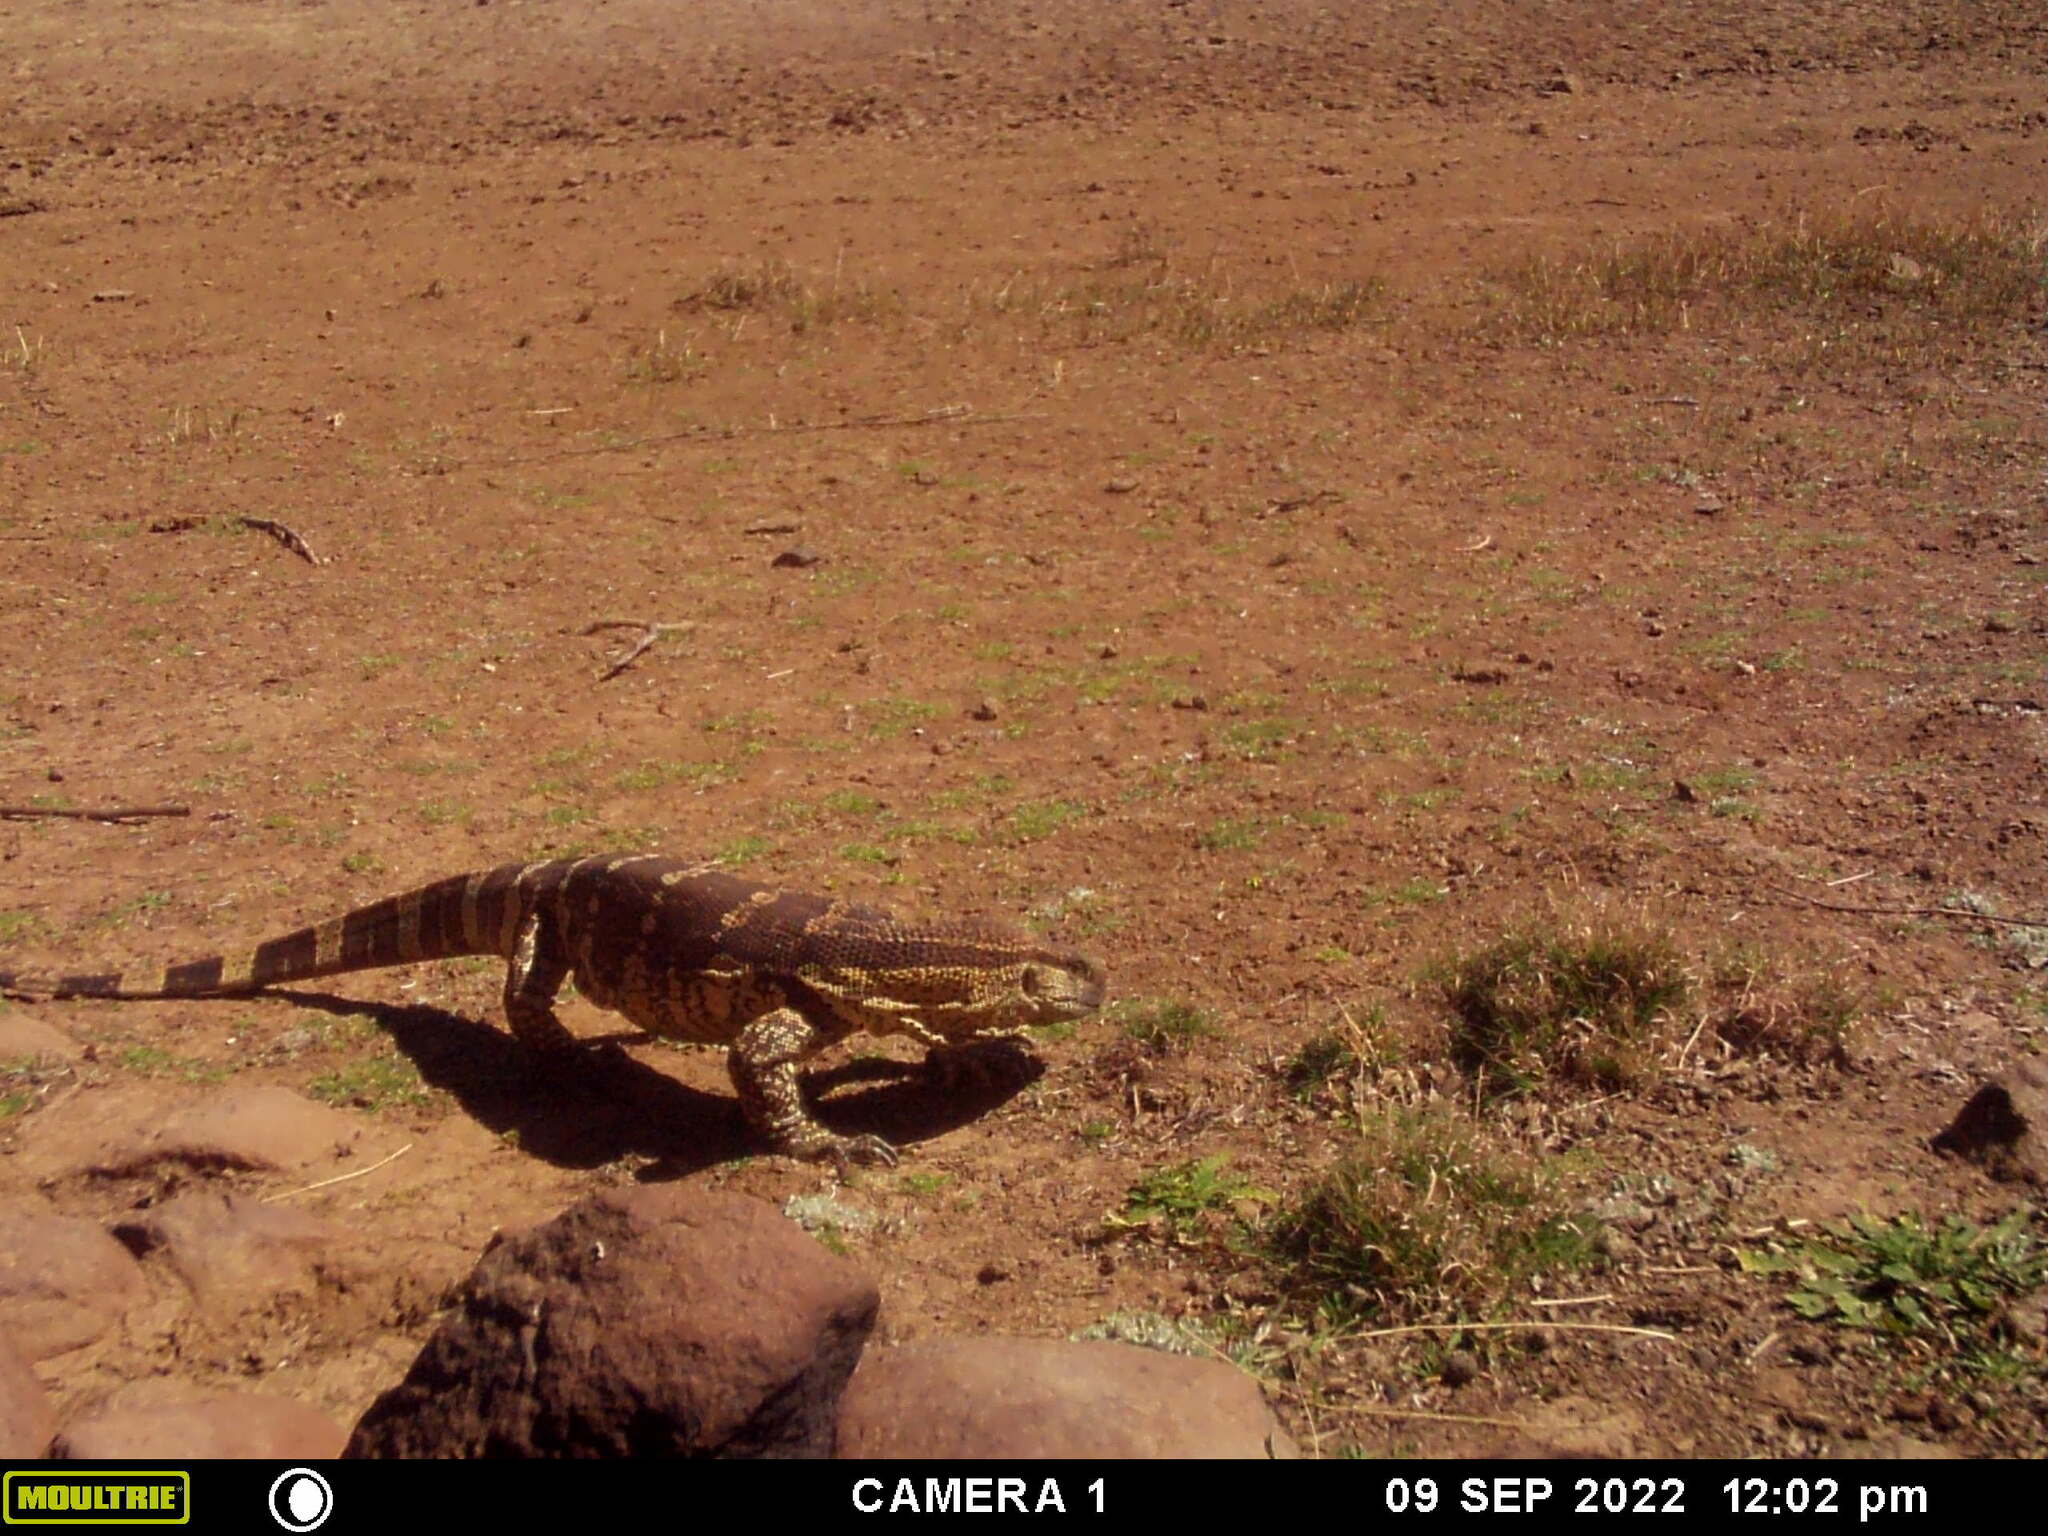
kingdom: Animalia
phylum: Chordata
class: Squamata
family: Varanidae
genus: Varanus
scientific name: Varanus albigularis
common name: White-throated monitor
